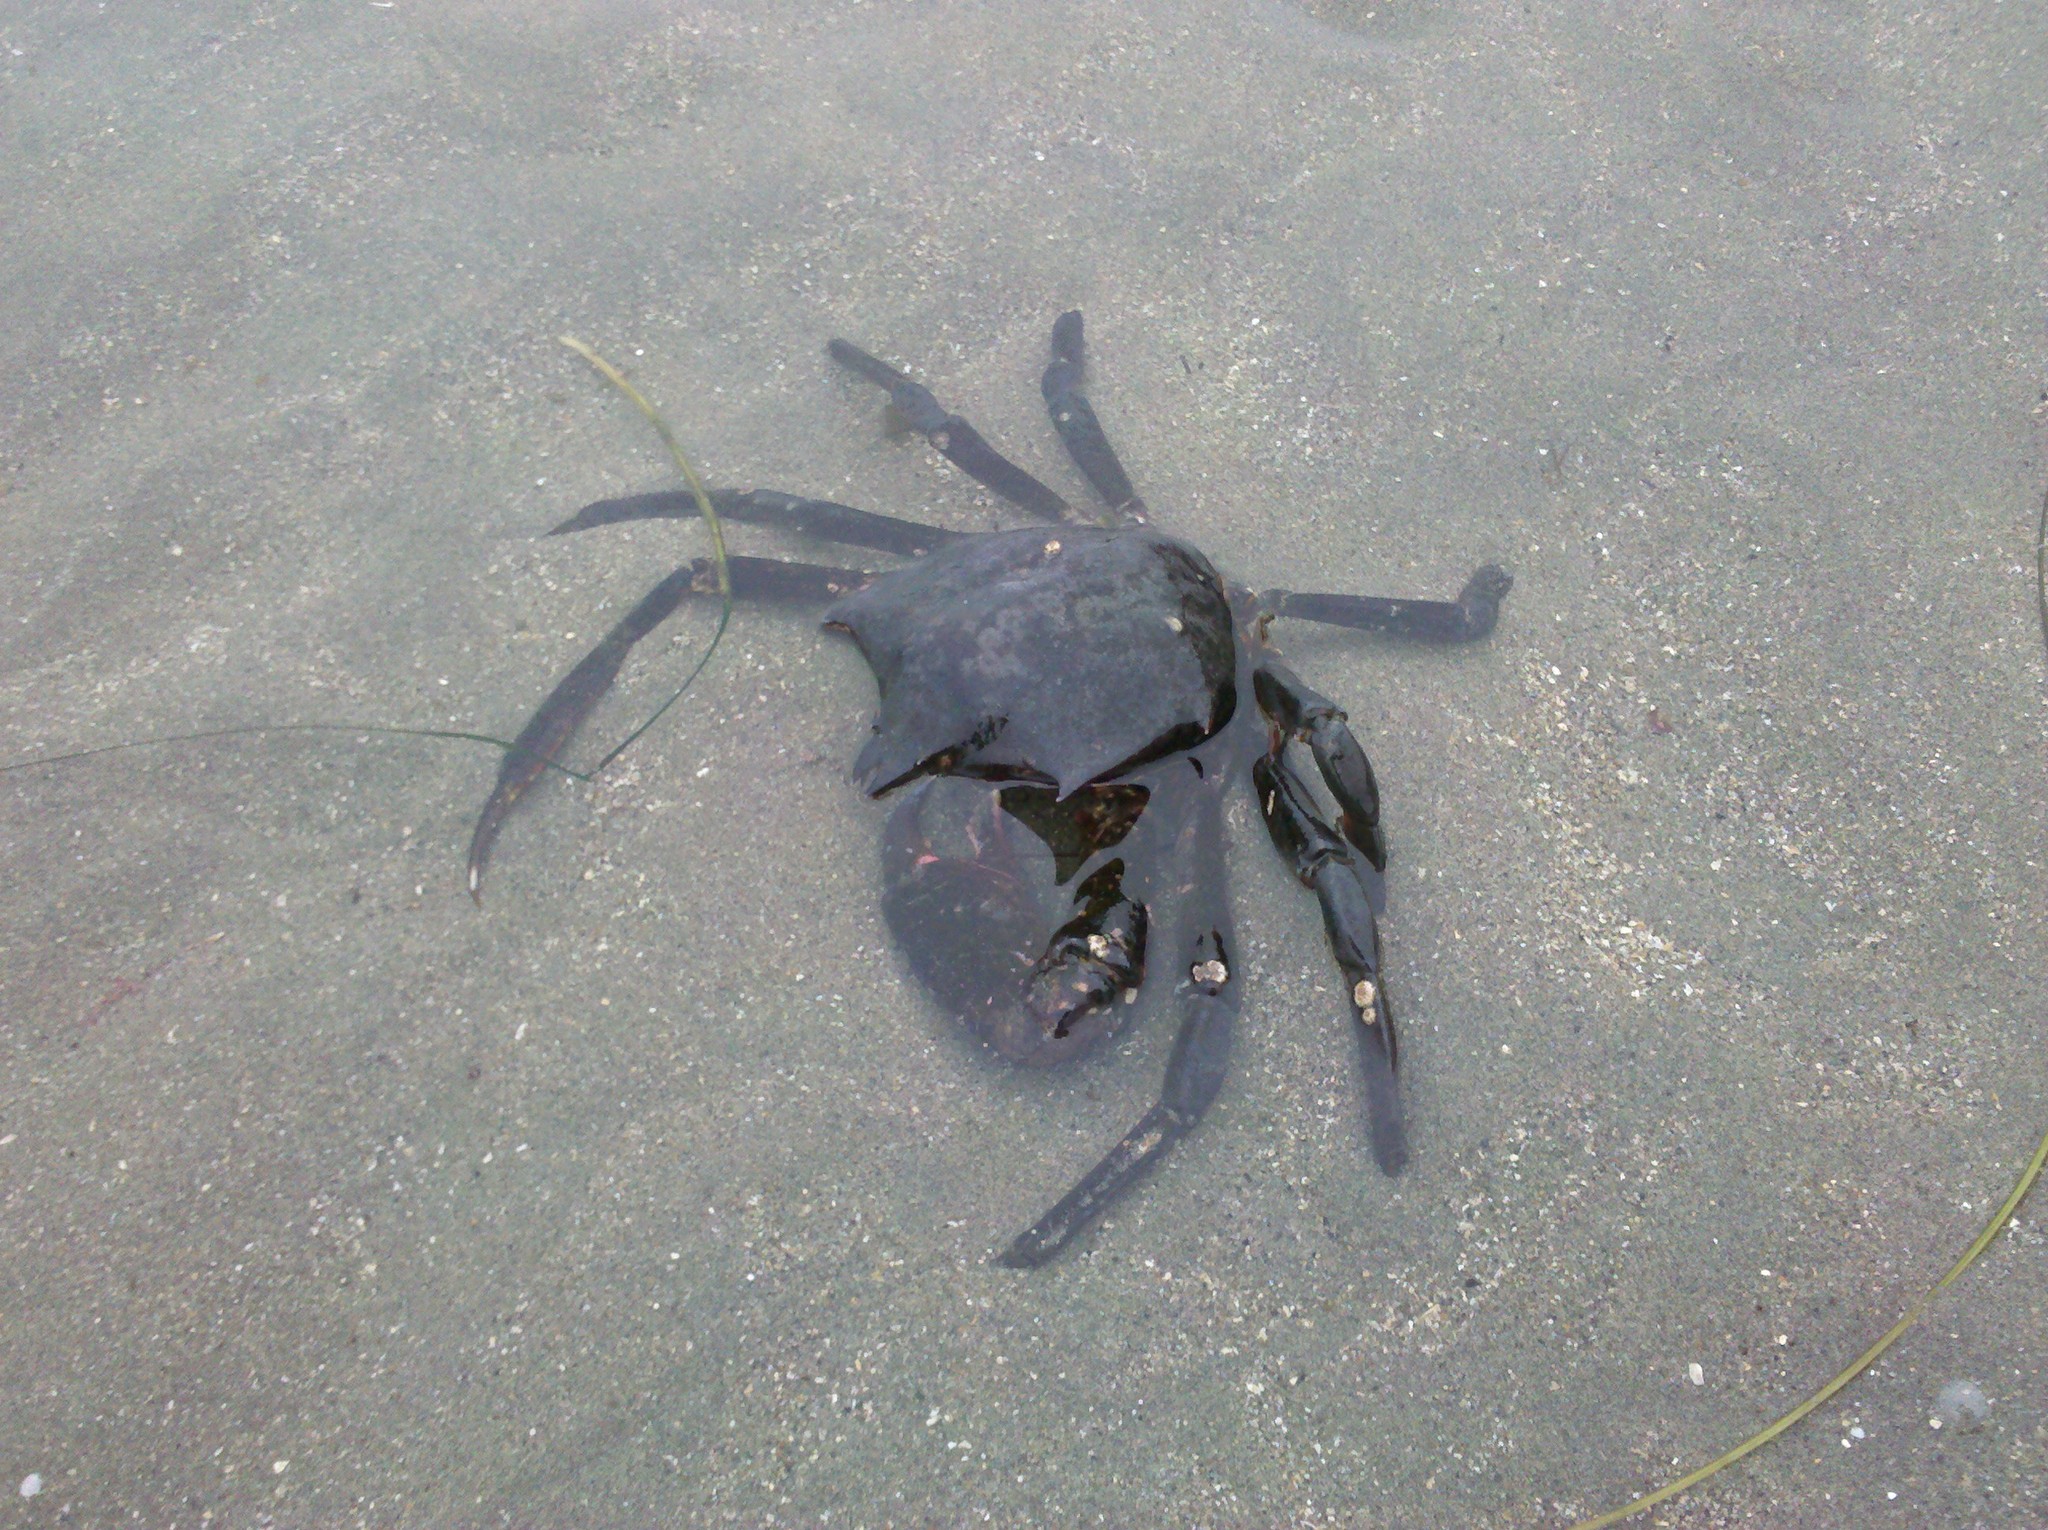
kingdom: Animalia
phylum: Arthropoda
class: Malacostraca
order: Decapoda
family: Epialtidae
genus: Pugettia
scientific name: Pugettia producta
